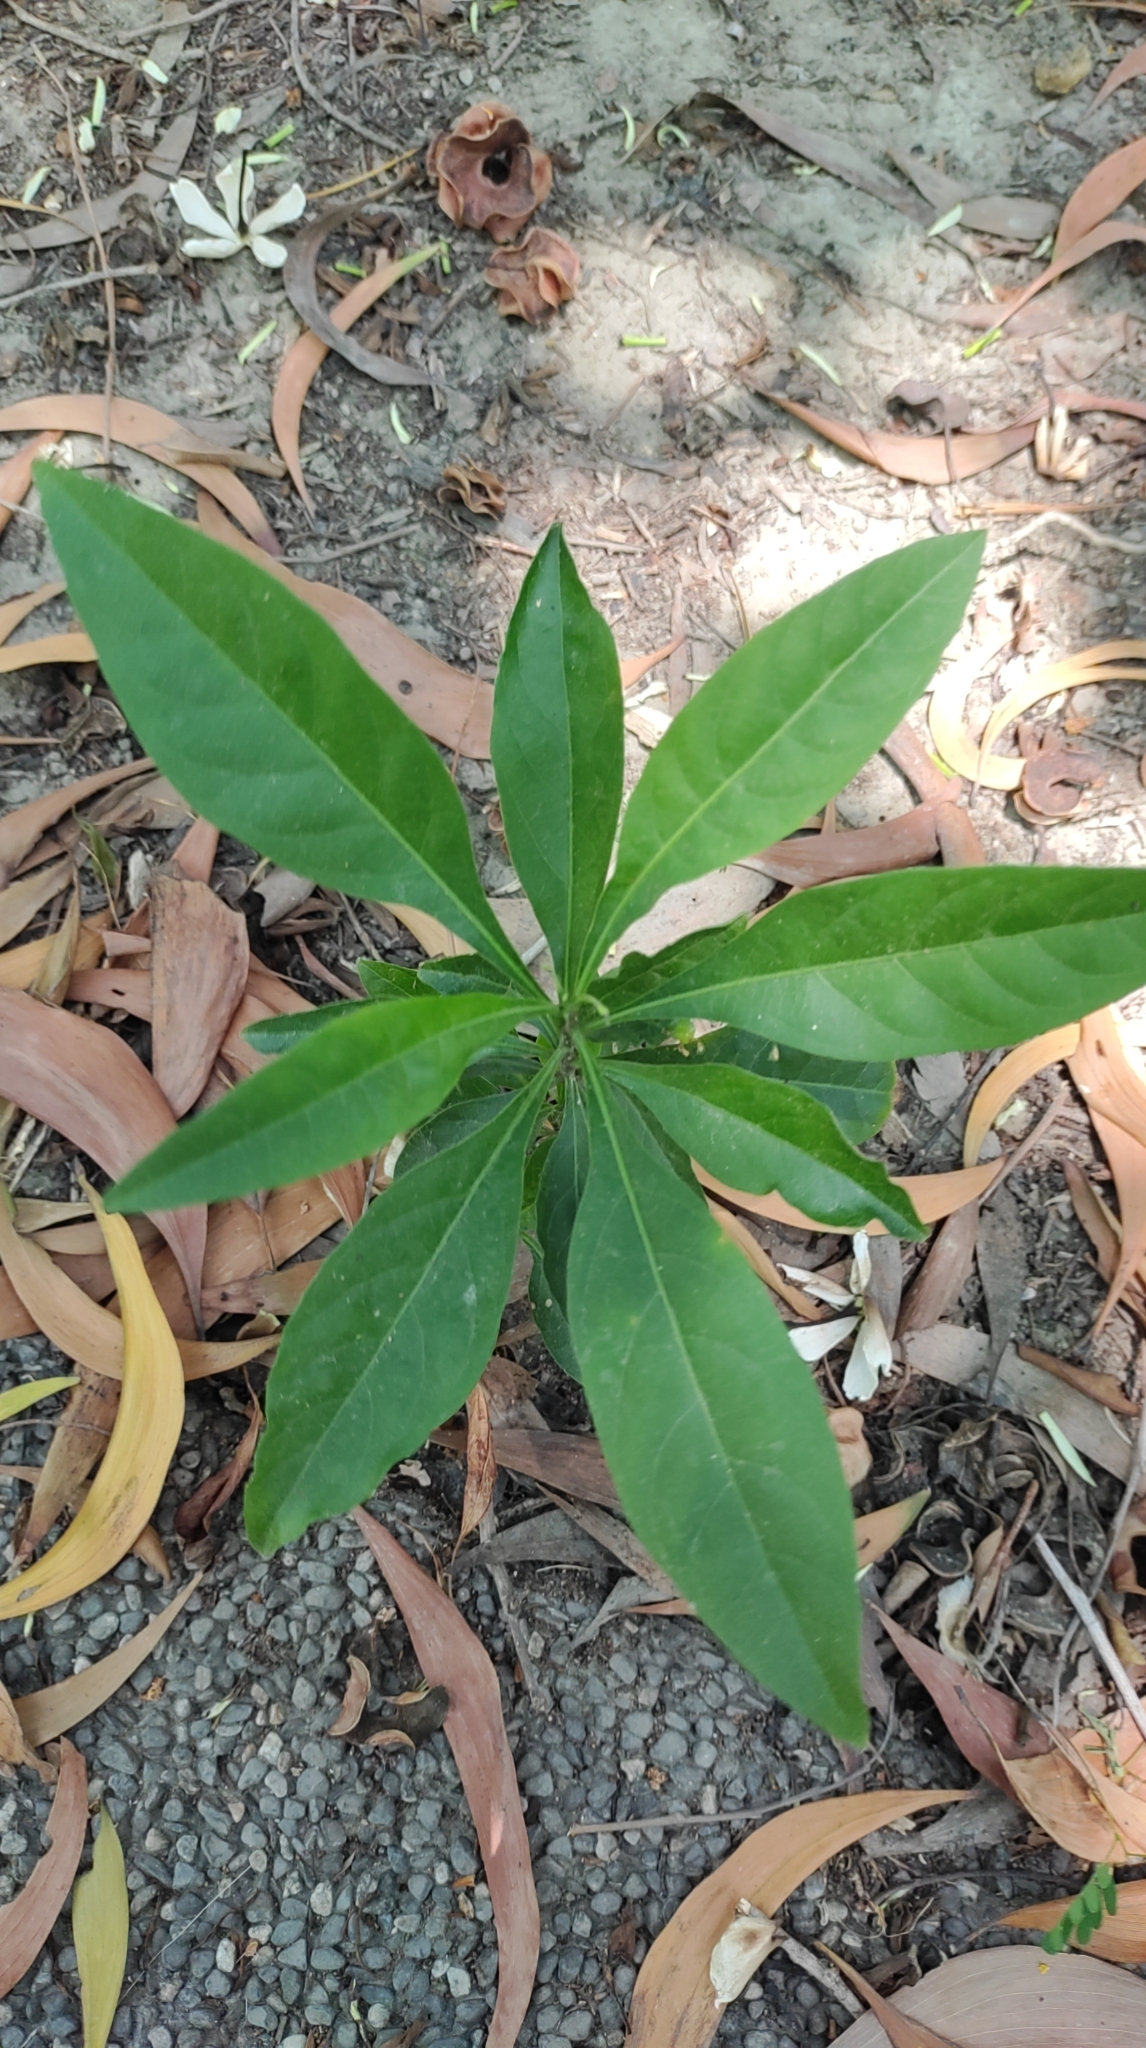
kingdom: Plantae
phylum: Tracheophyta
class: Magnoliopsida
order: Solanales
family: Solanaceae
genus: Solanum
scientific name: Solanum diphyllum
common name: Twoleaf nightshade
